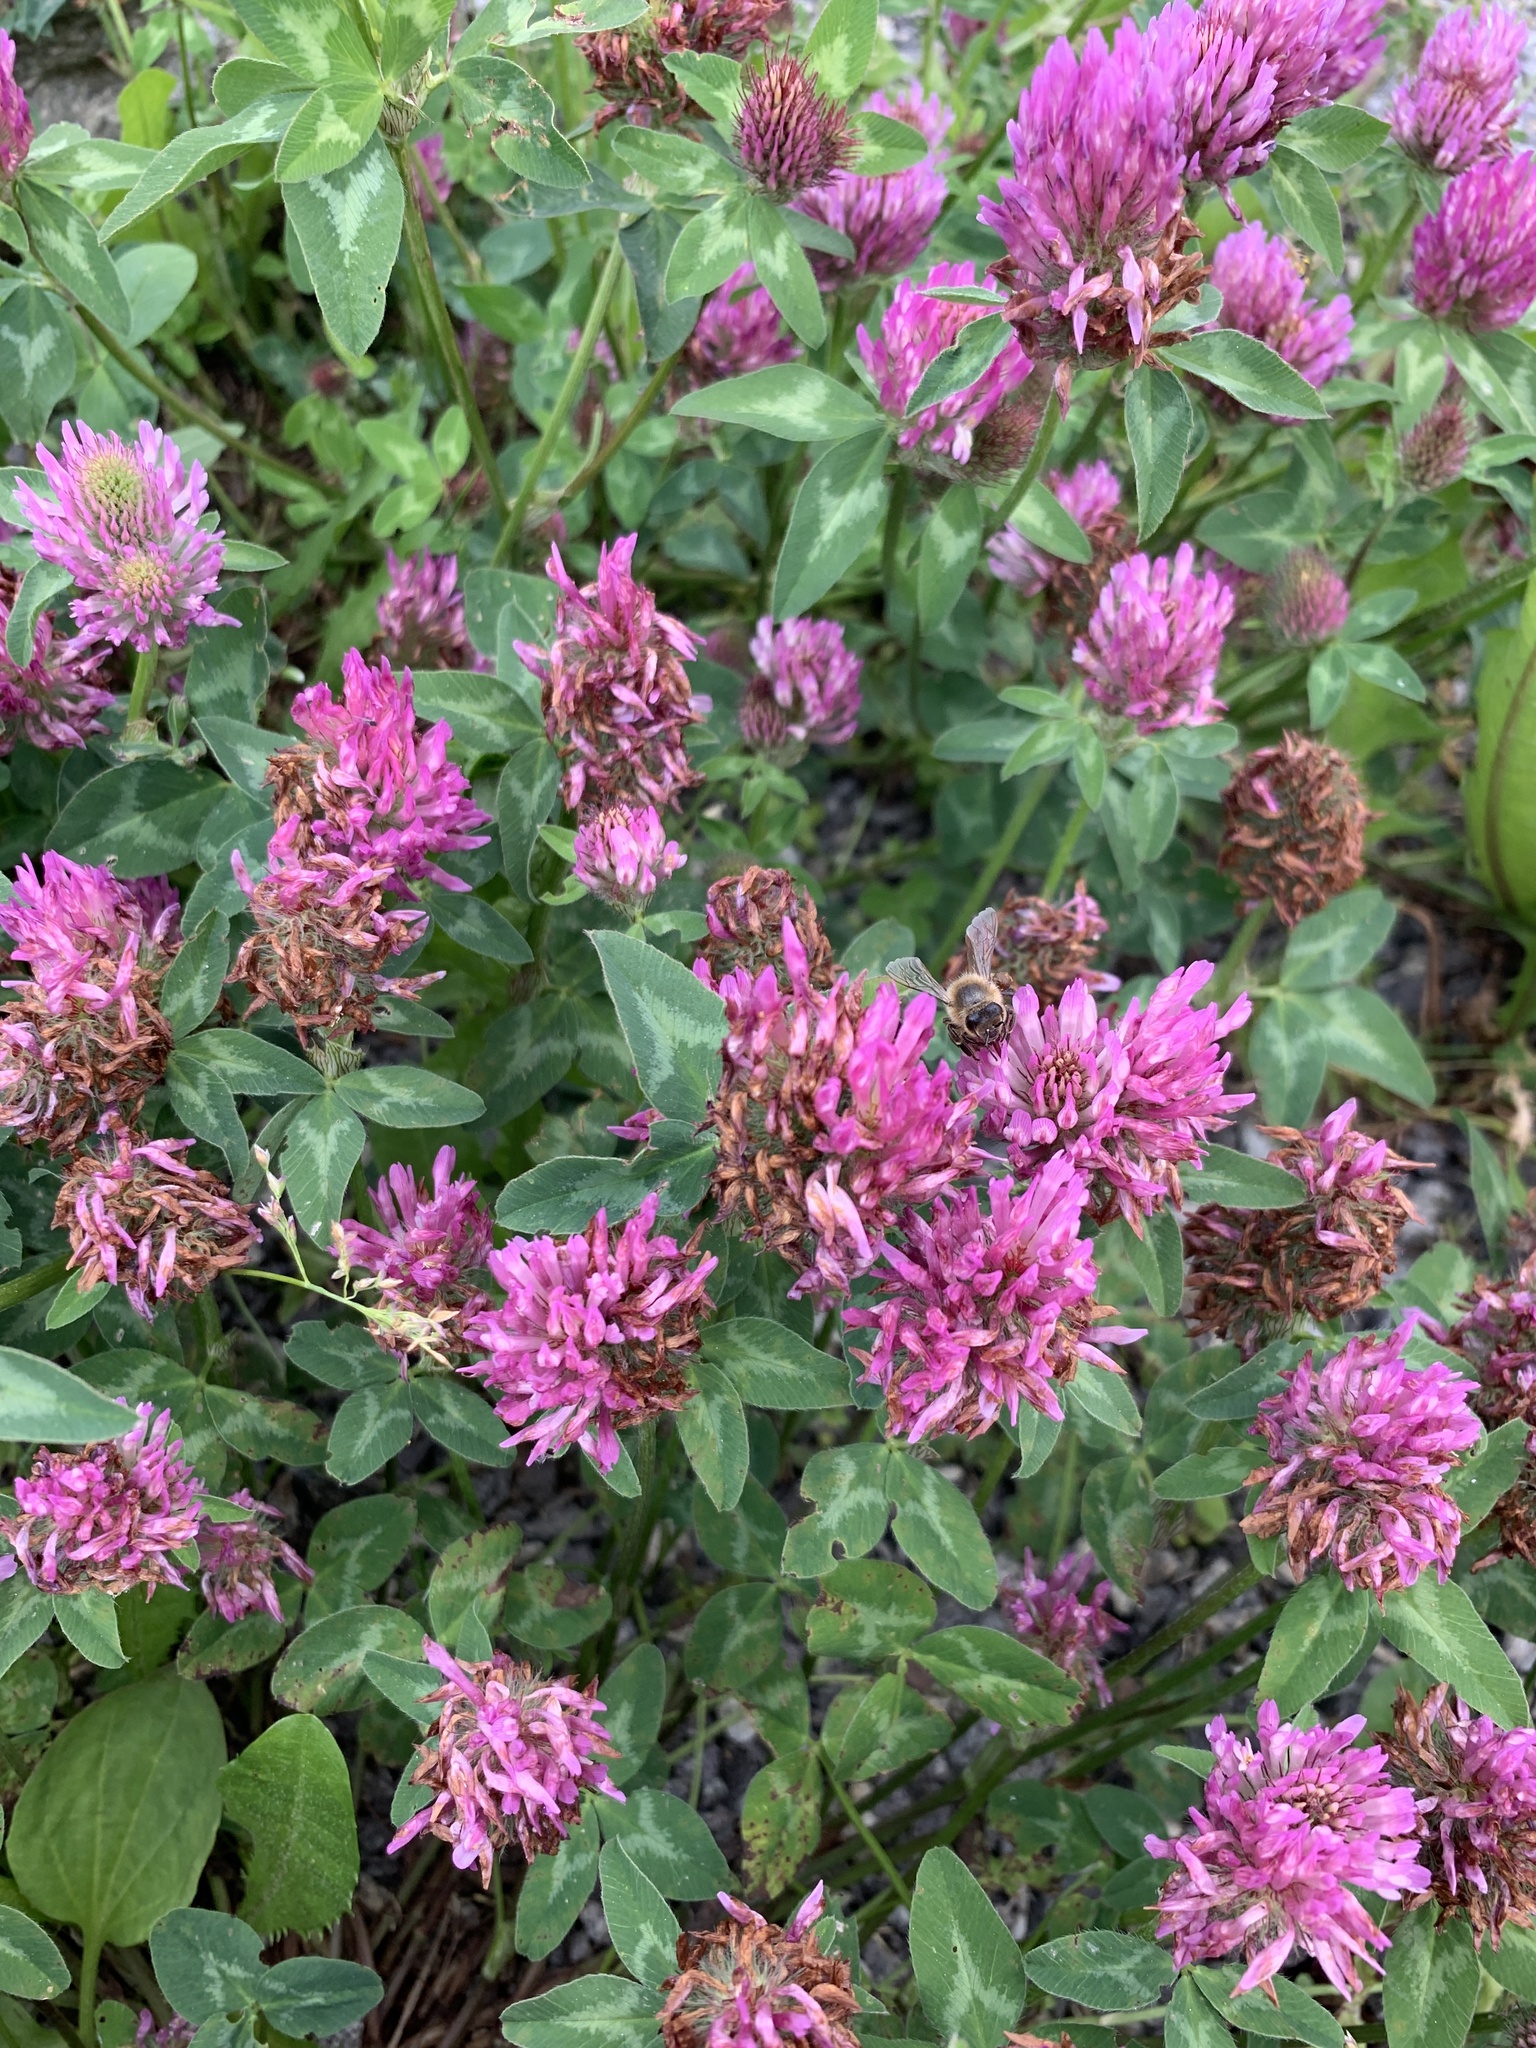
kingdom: Plantae
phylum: Tracheophyta
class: Magnoliopsida
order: Fabales
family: Fabaceae
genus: Trifolium
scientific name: Trifolium pratense
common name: Red clover
